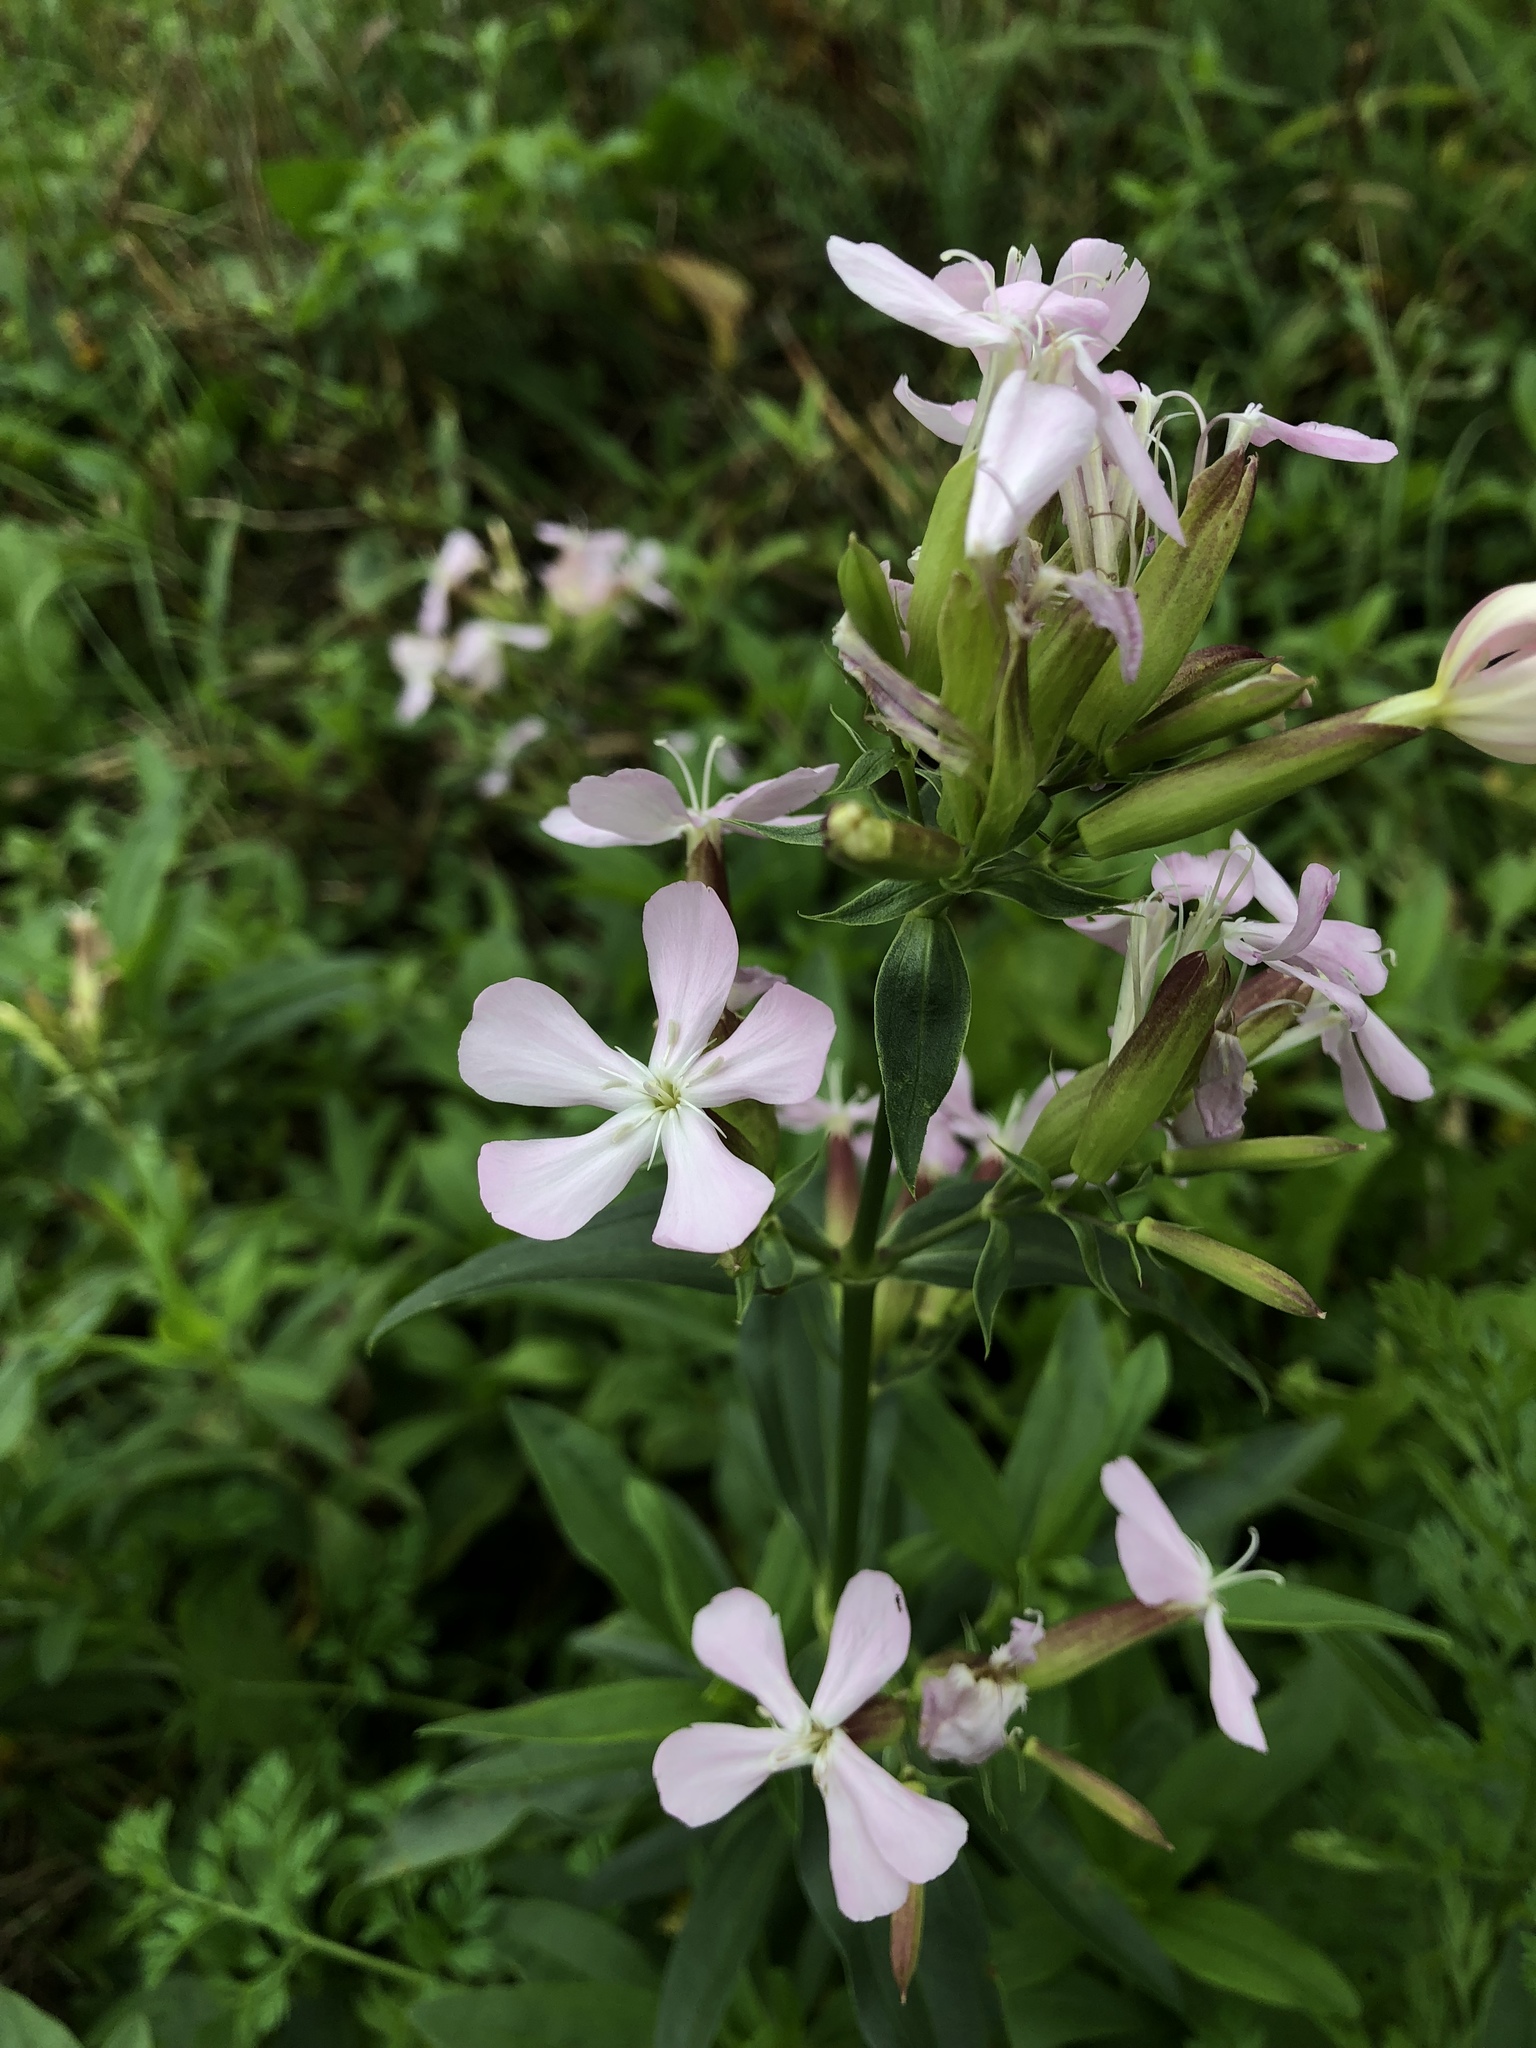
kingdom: Plantae
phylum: Tracheophyta
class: Magnoliopsida
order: Caryophyllales
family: Caryophyllaceae
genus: Saponaria
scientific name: Saponaria officinalis
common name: Soapwort
